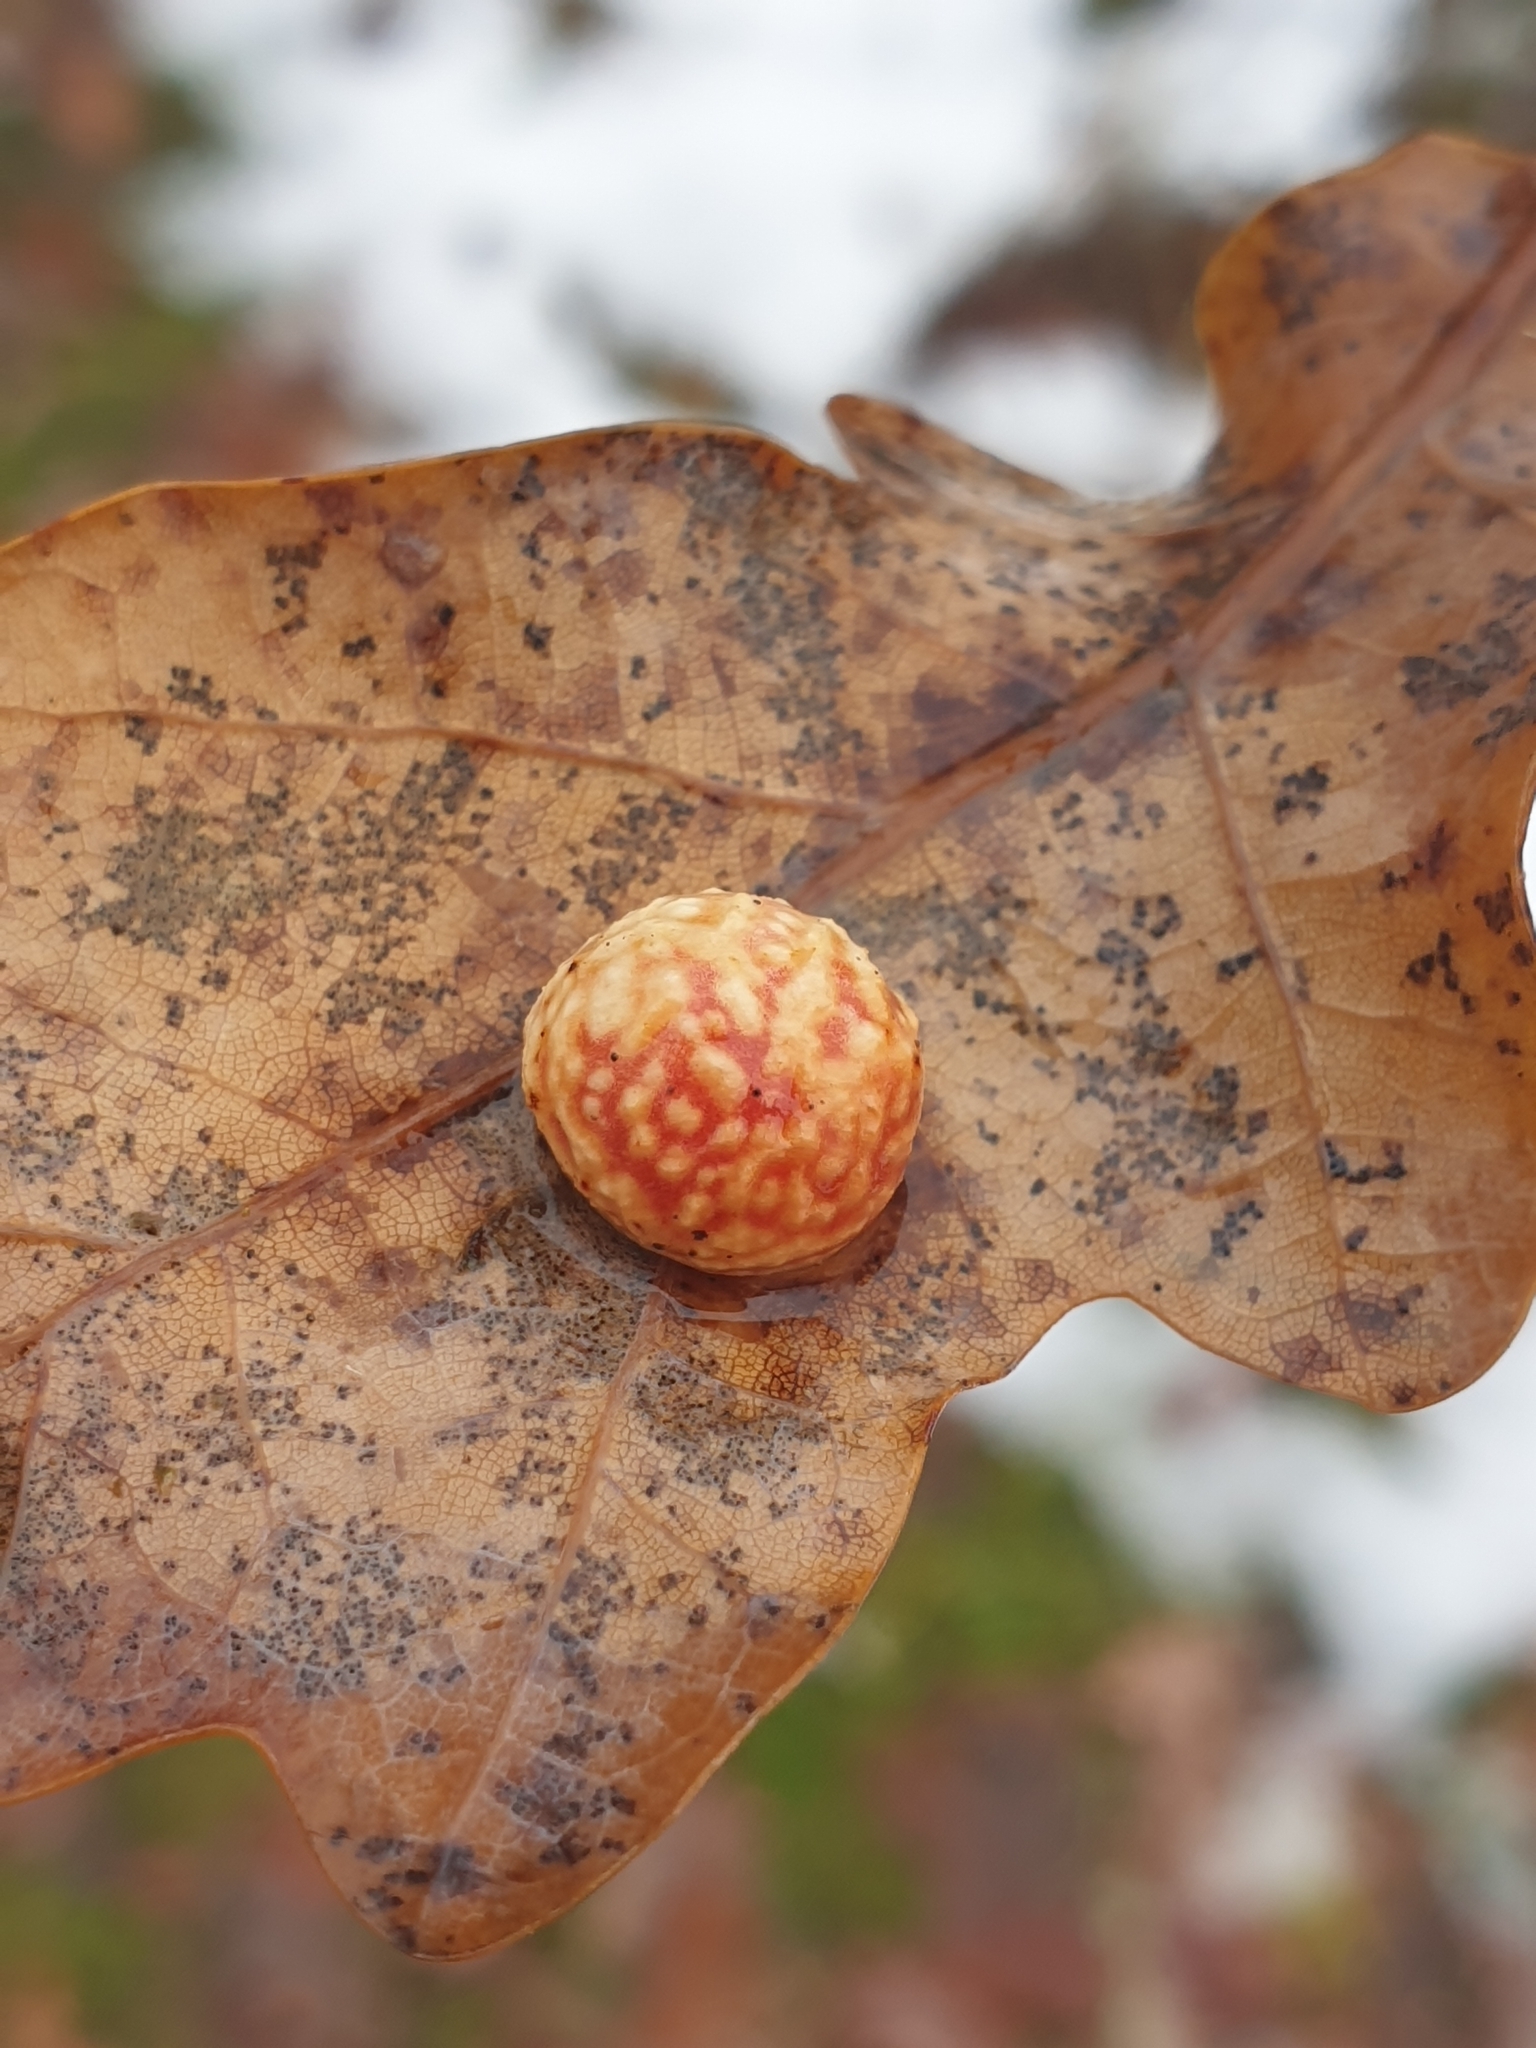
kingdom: Animalia
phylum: Arthropoda
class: Insecta
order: Hymenoptera
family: Cynipidae
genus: Cynips
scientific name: Cynips longiventris
